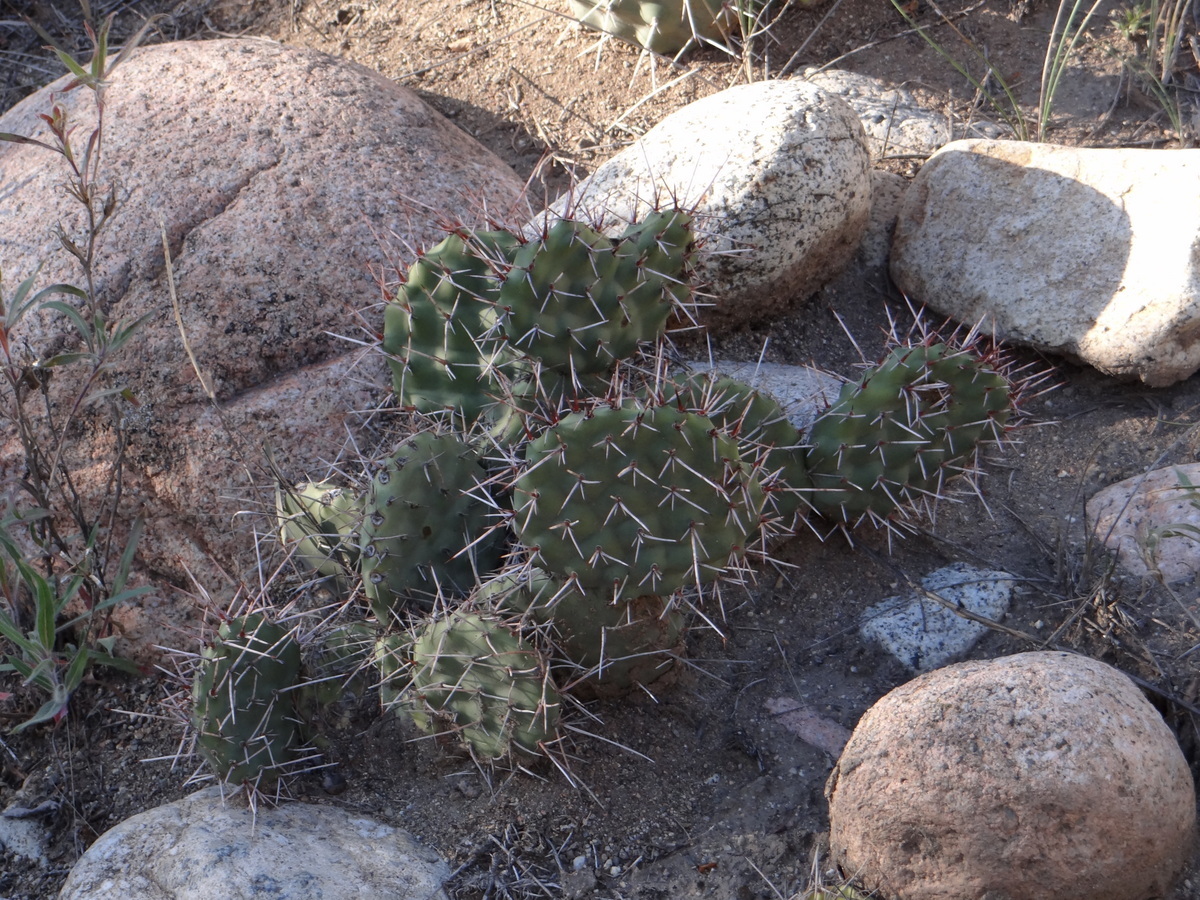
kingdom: Plantae
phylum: Tracheophyta
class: Magnoliopsida
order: Caryophyllales
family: Cactaceae
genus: Opuntia
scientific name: Opuntia sulphurea
